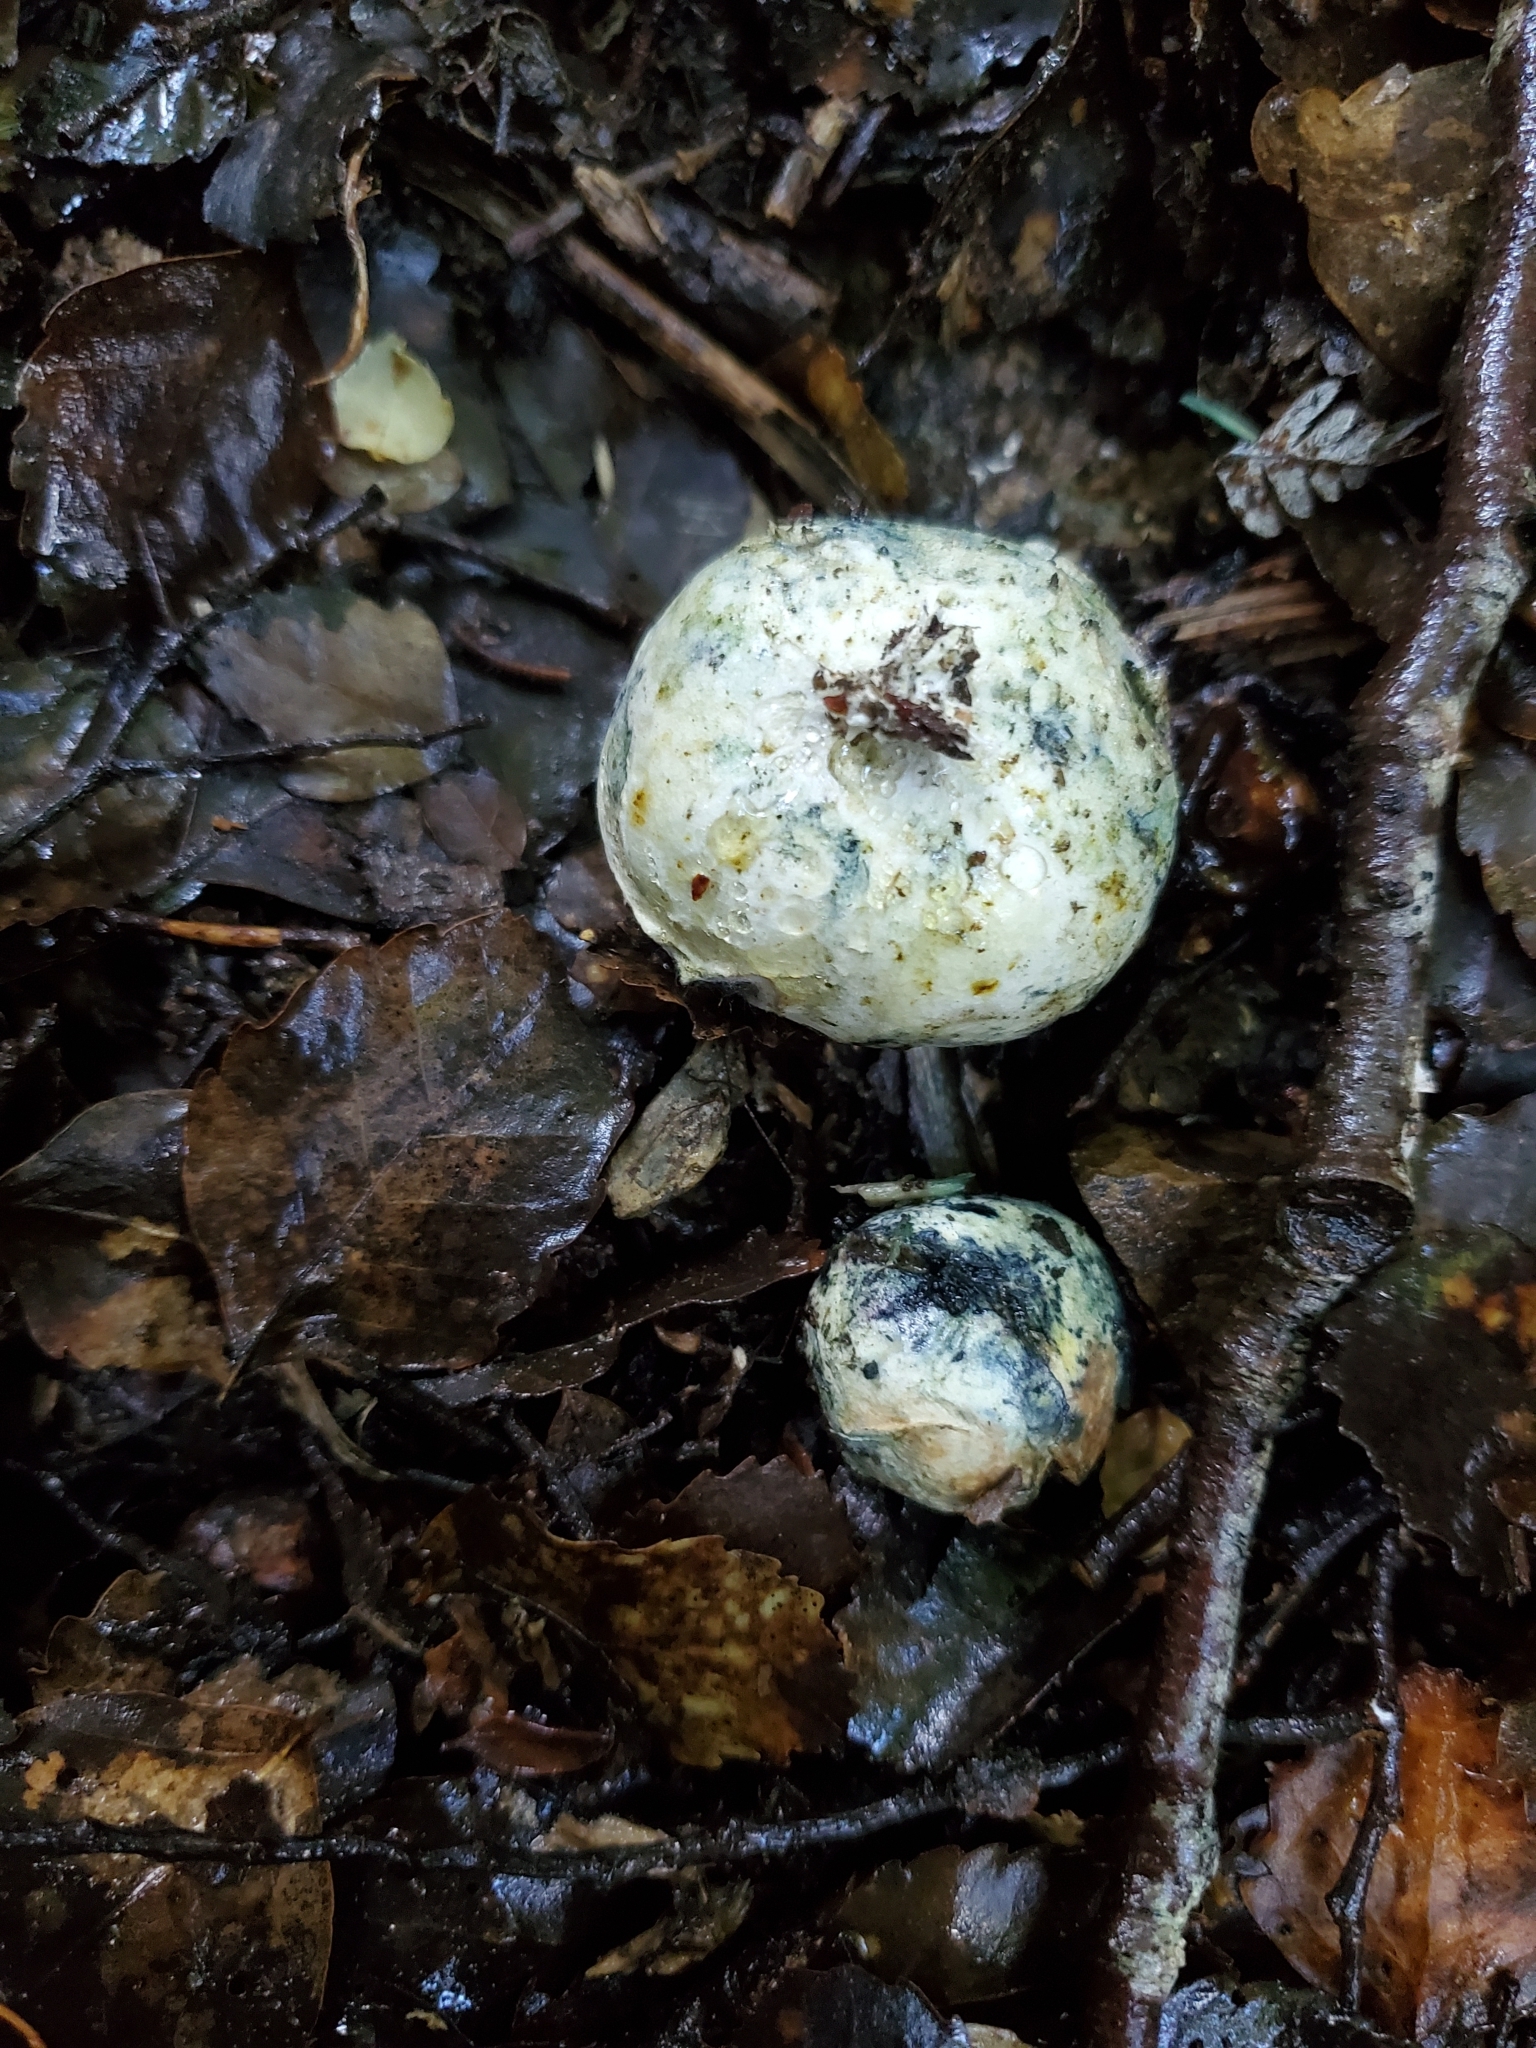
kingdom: Fungi
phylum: Basidiomycota
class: Agaricomycetes
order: Boletales
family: Boletaceae
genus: Leccinum
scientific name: Leccinum pachyderme
